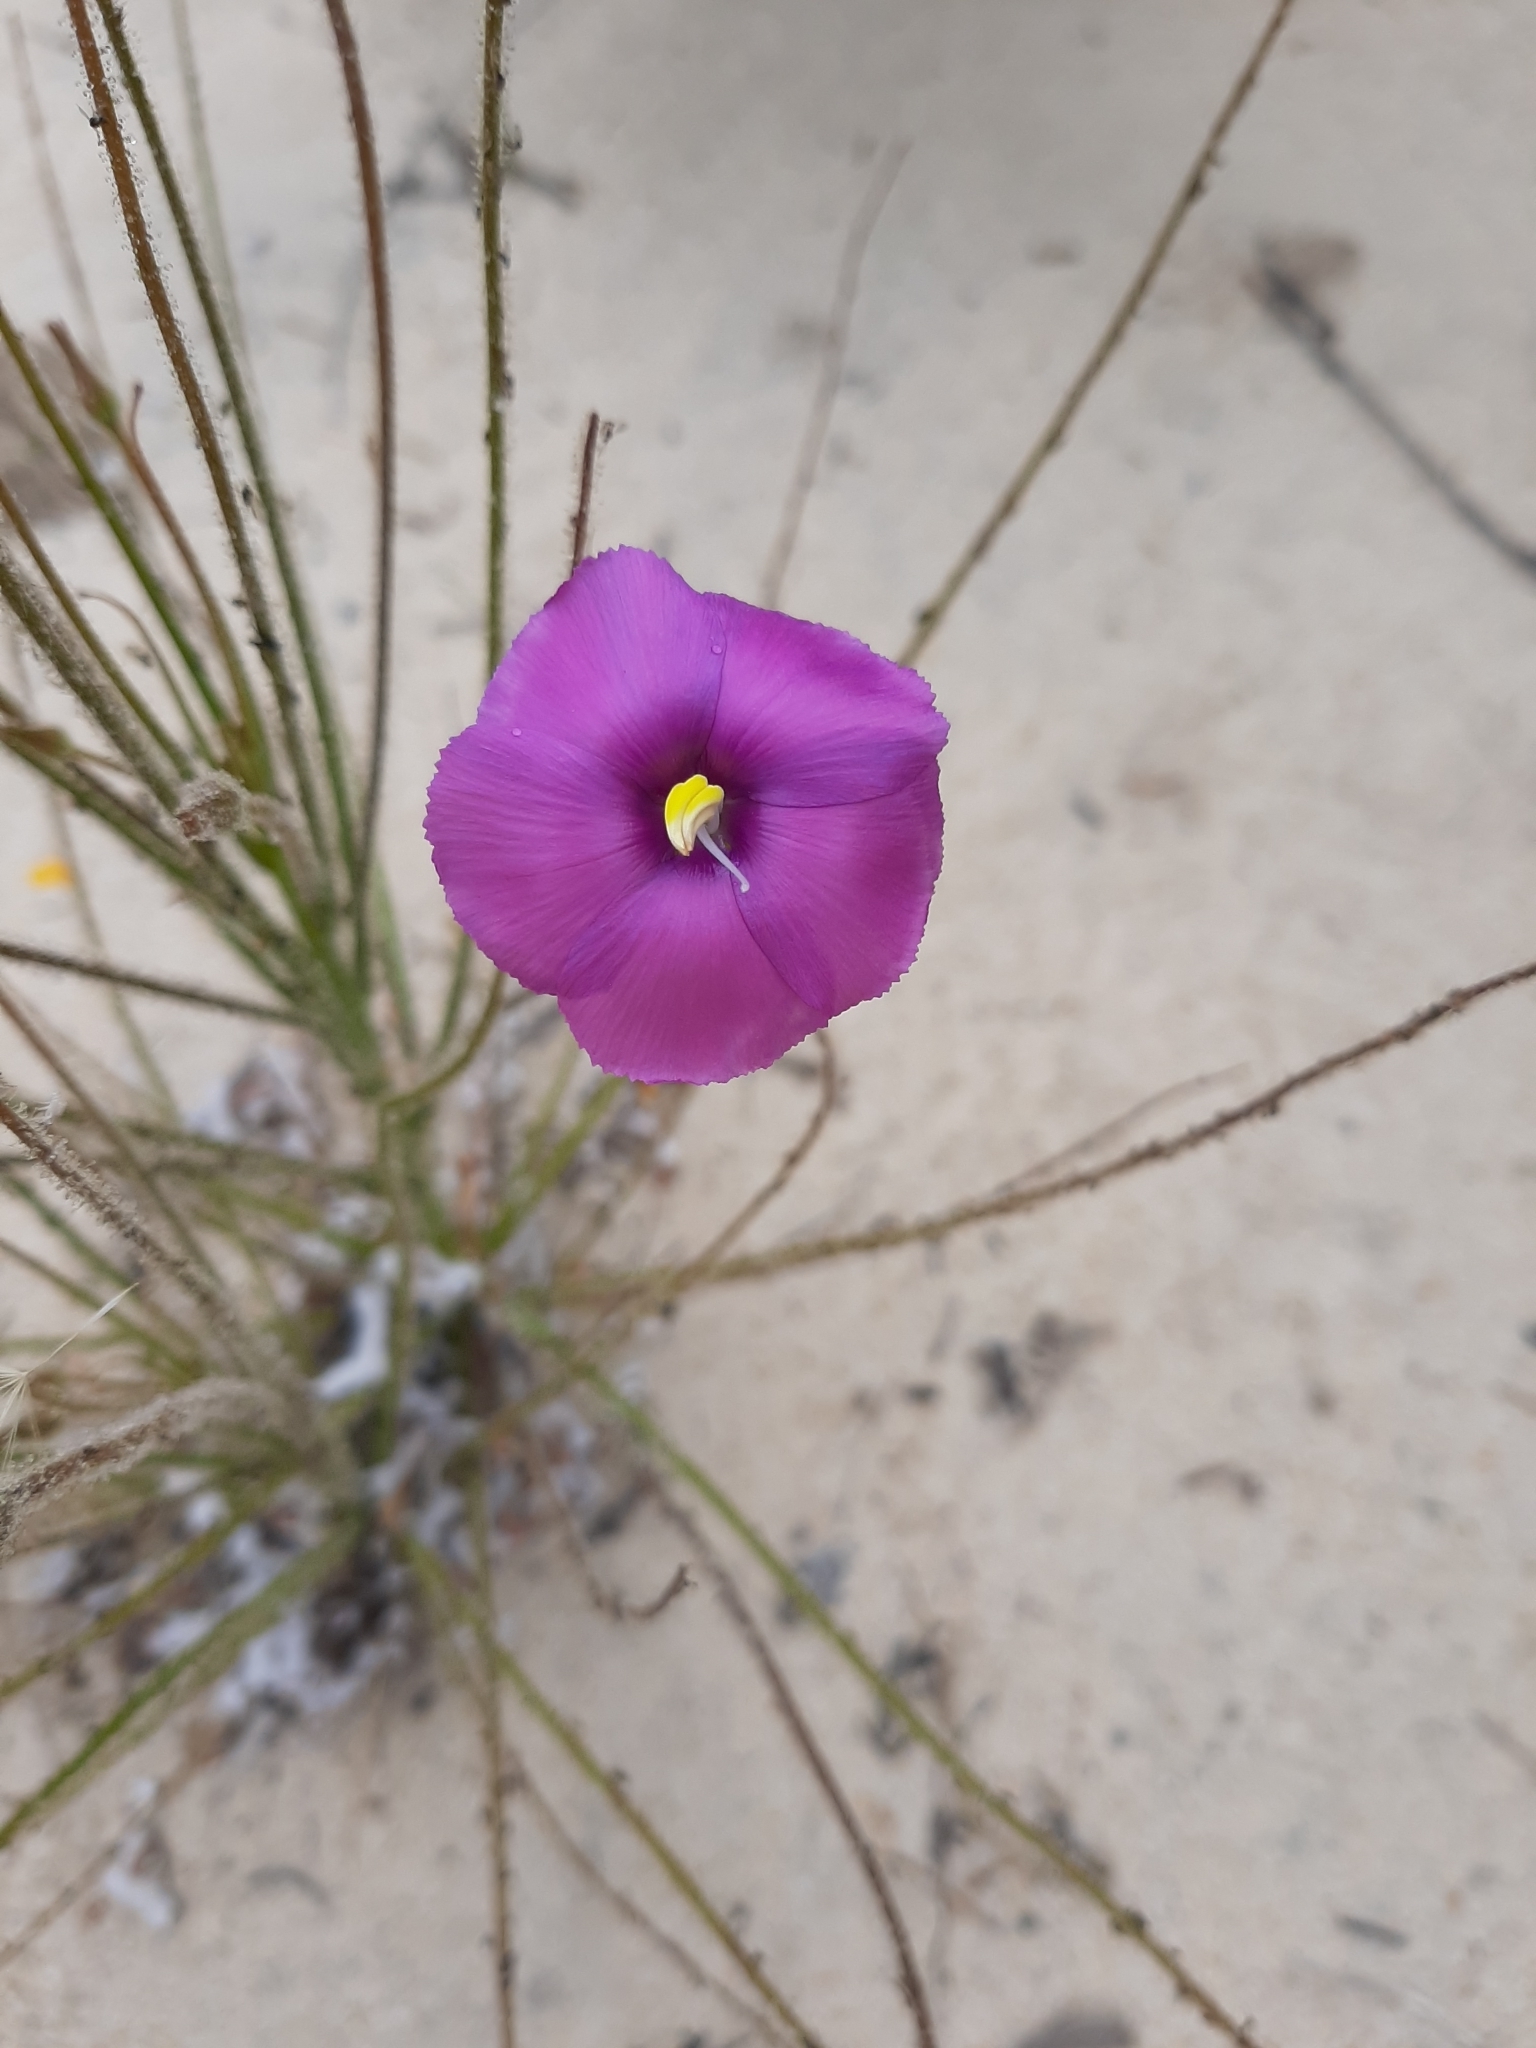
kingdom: Plantae
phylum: Tracheophyta
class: Magnoliopsida
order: Lamiales
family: Byblidaceae
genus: Byblis
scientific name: Byblis lamellata
